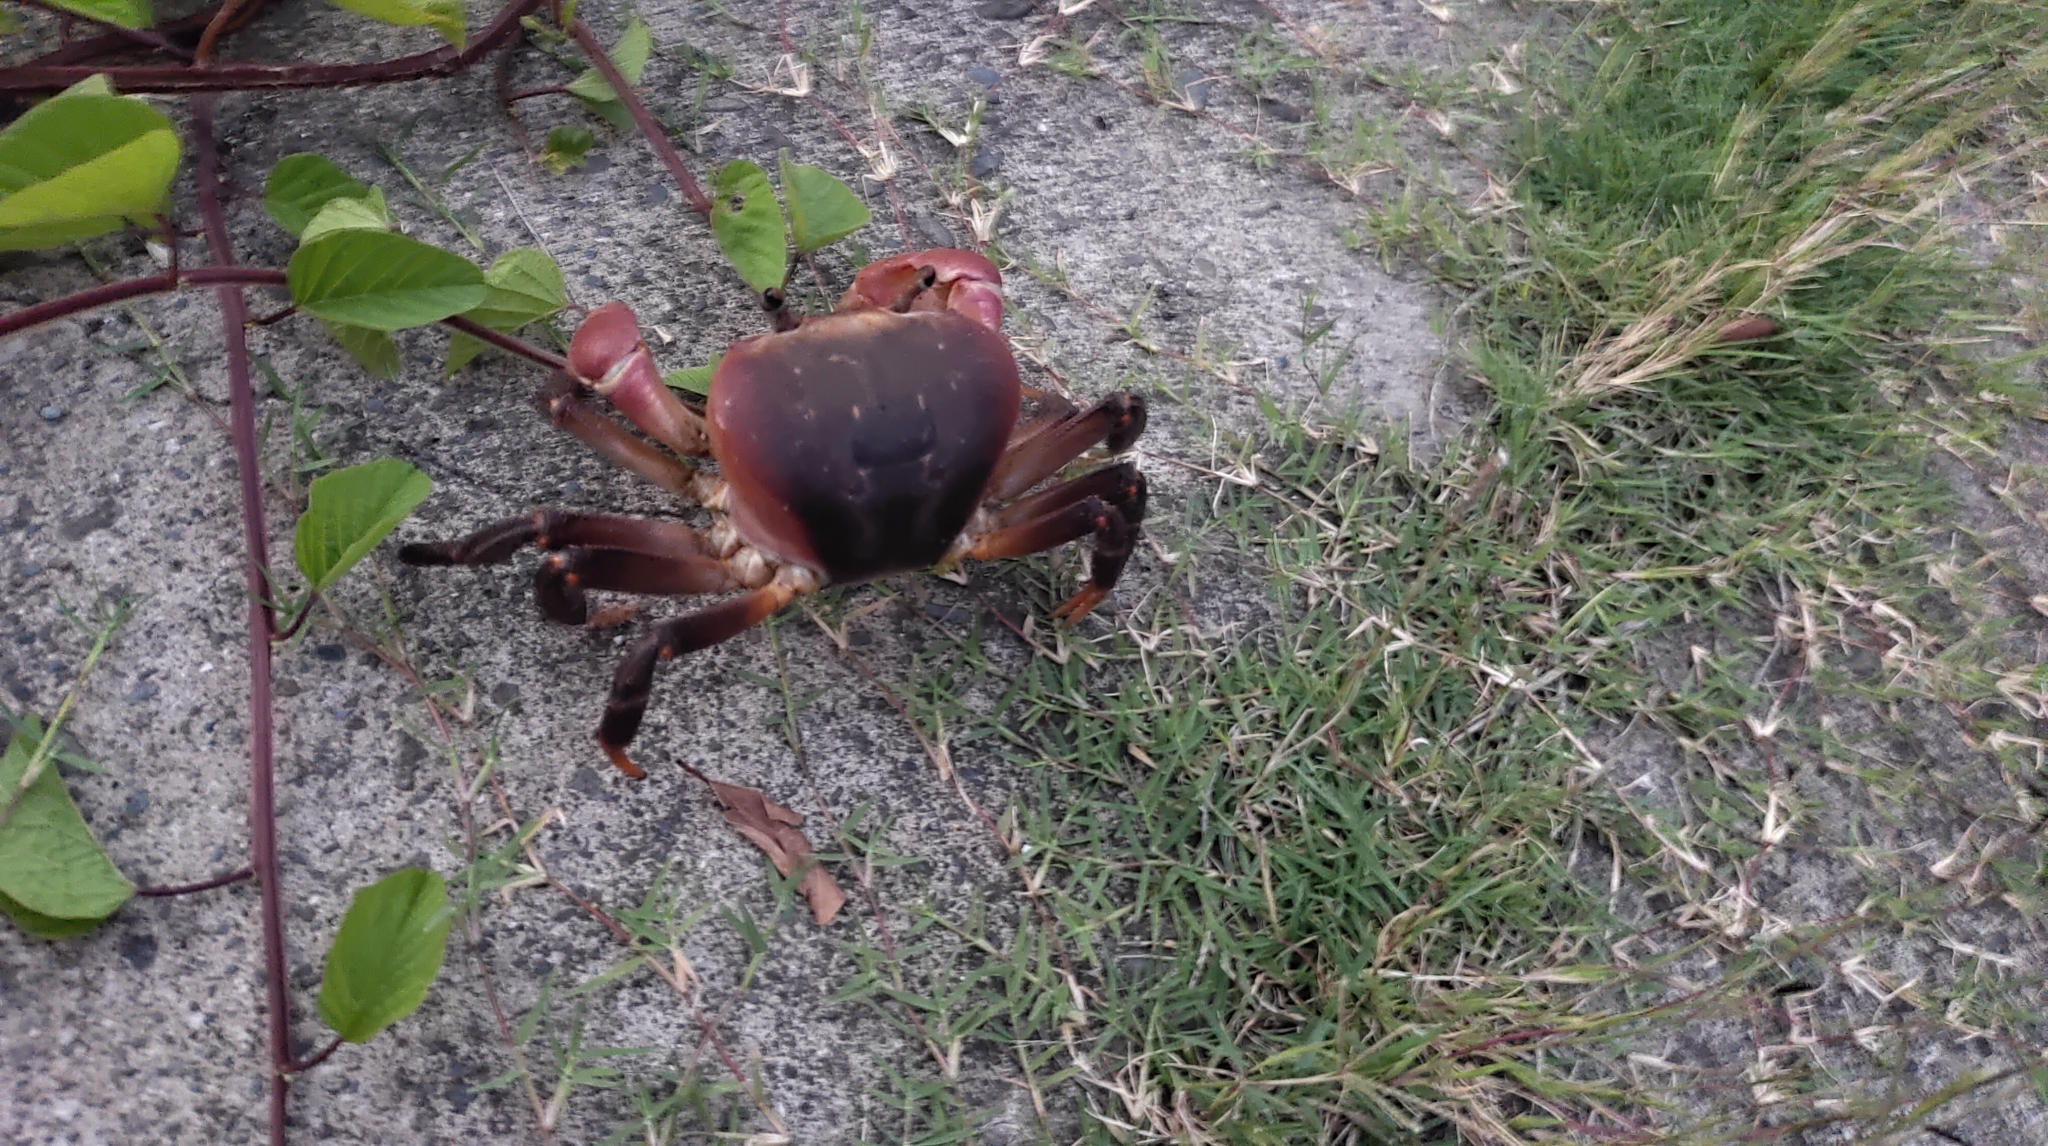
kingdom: Animalia
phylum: Arthropoda
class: Malacostraca
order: Decapoda
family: Gecarcinidae
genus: Cardisoma
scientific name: Cardisoma carnifex
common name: Brown land crab
